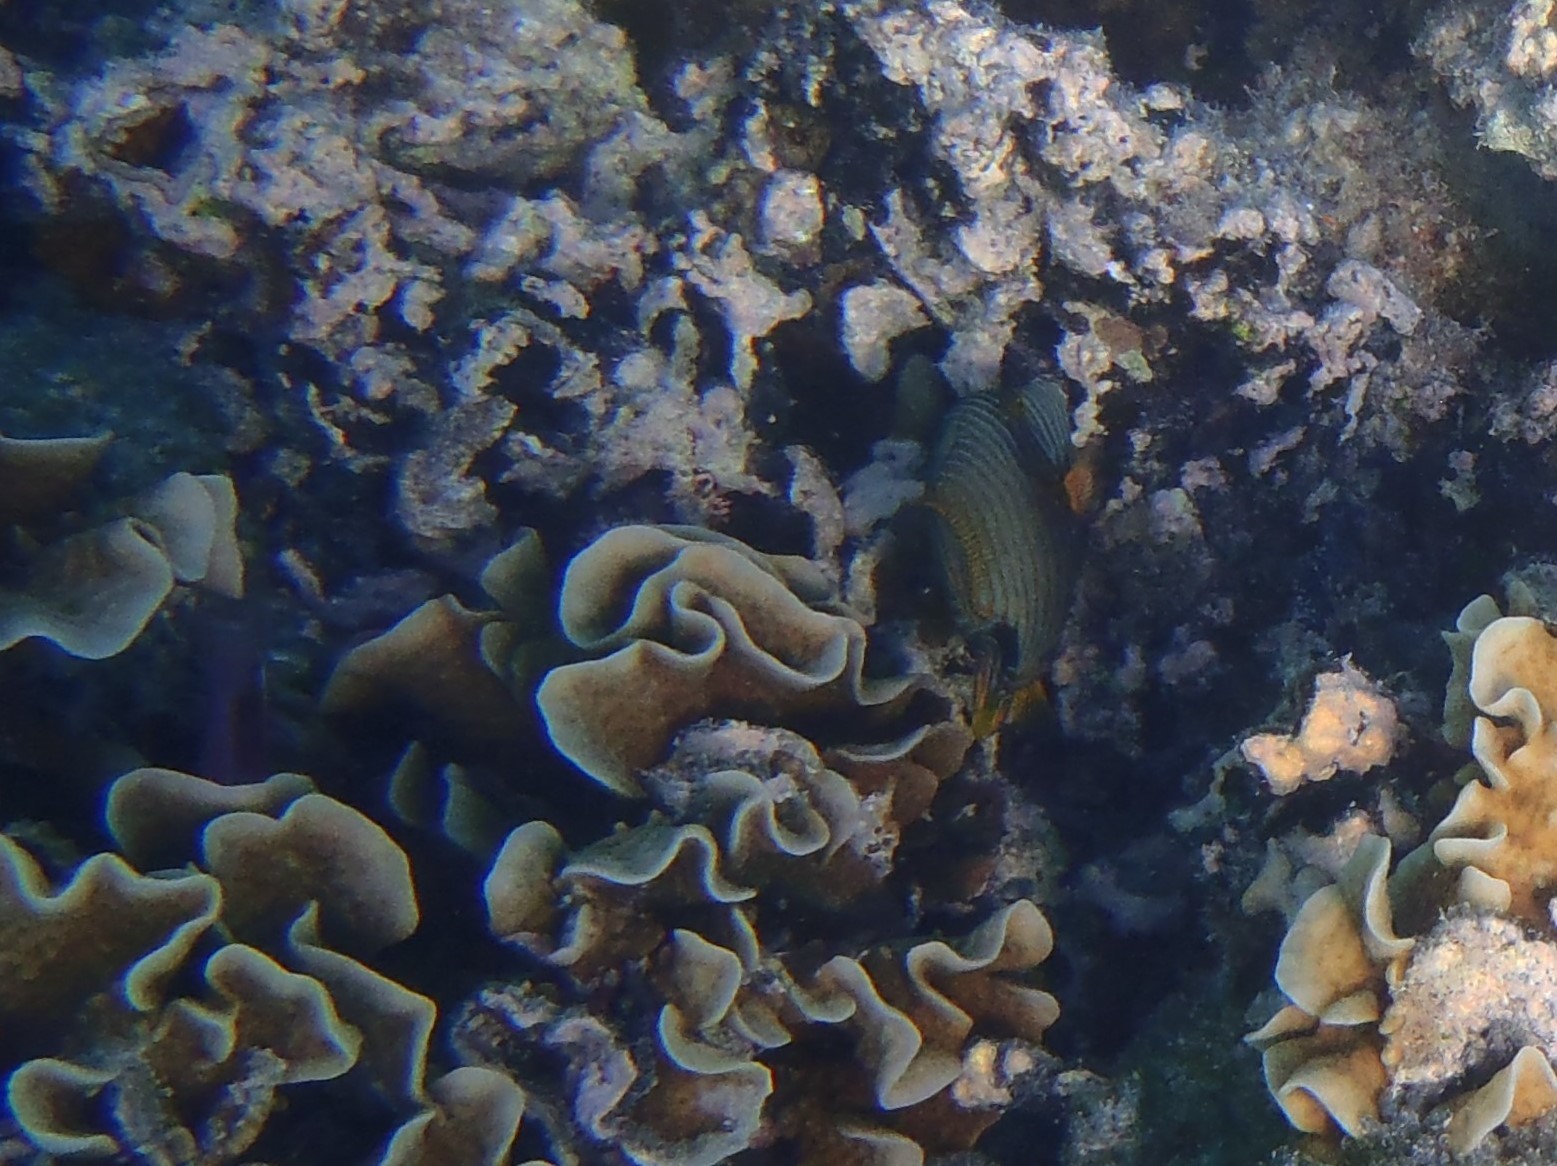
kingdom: Animalia
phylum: Chordata
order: Tetraodontiformes
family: Balistidae
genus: Balistapus
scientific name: Balistapus undulatus
